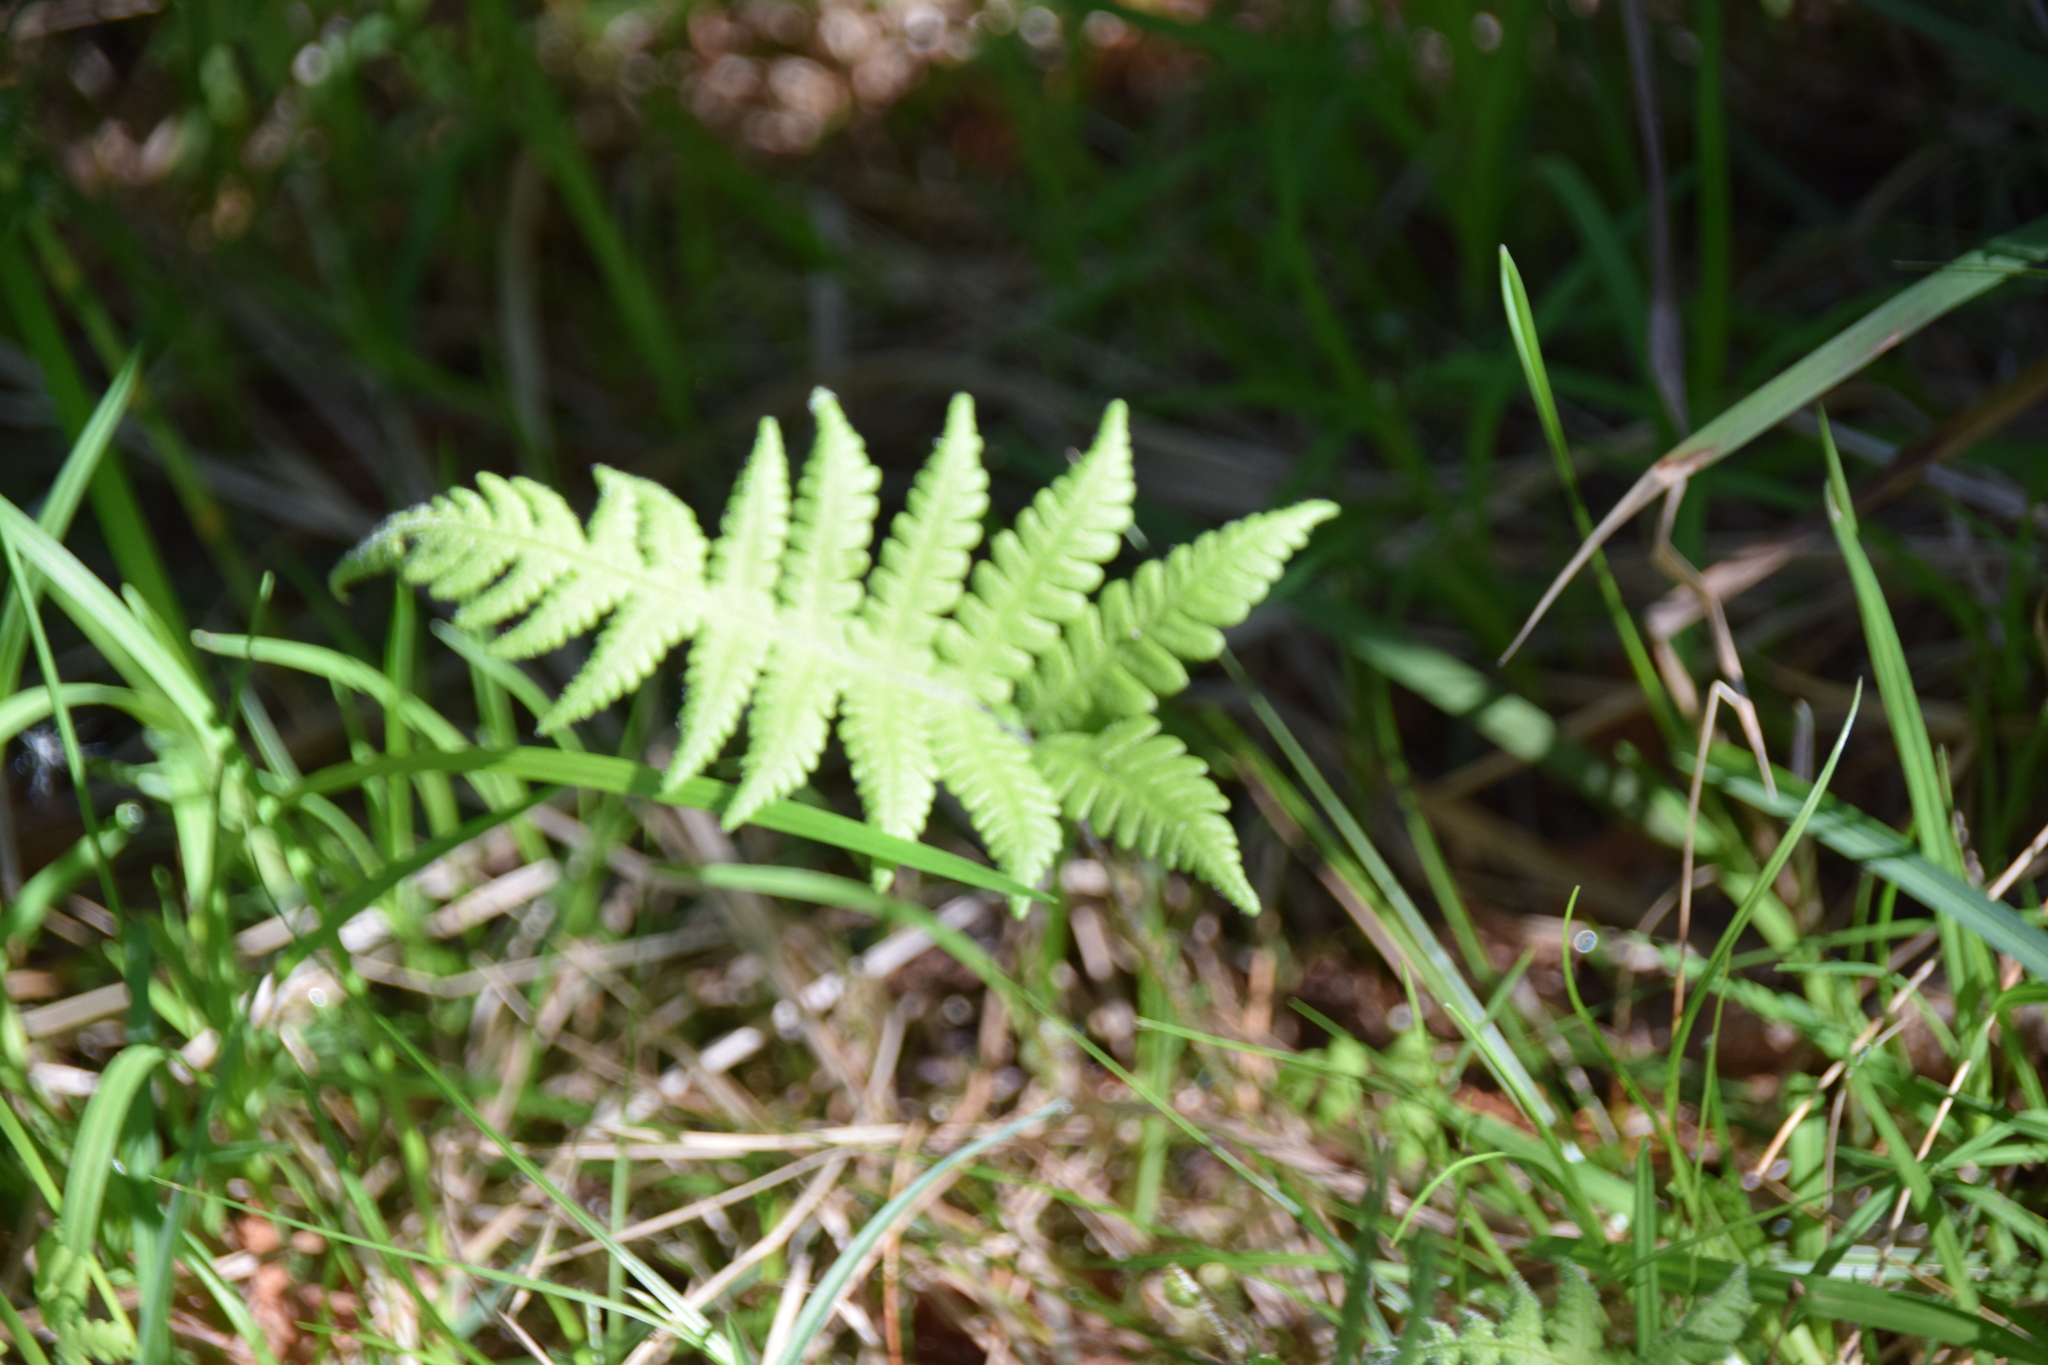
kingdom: Plantae
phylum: Tracheophyta
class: Polypodiopsida
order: Polypodiales
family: Thelypteridaceae
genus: Phegopteris
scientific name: Phegopteris connectilis
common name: Beech fern
